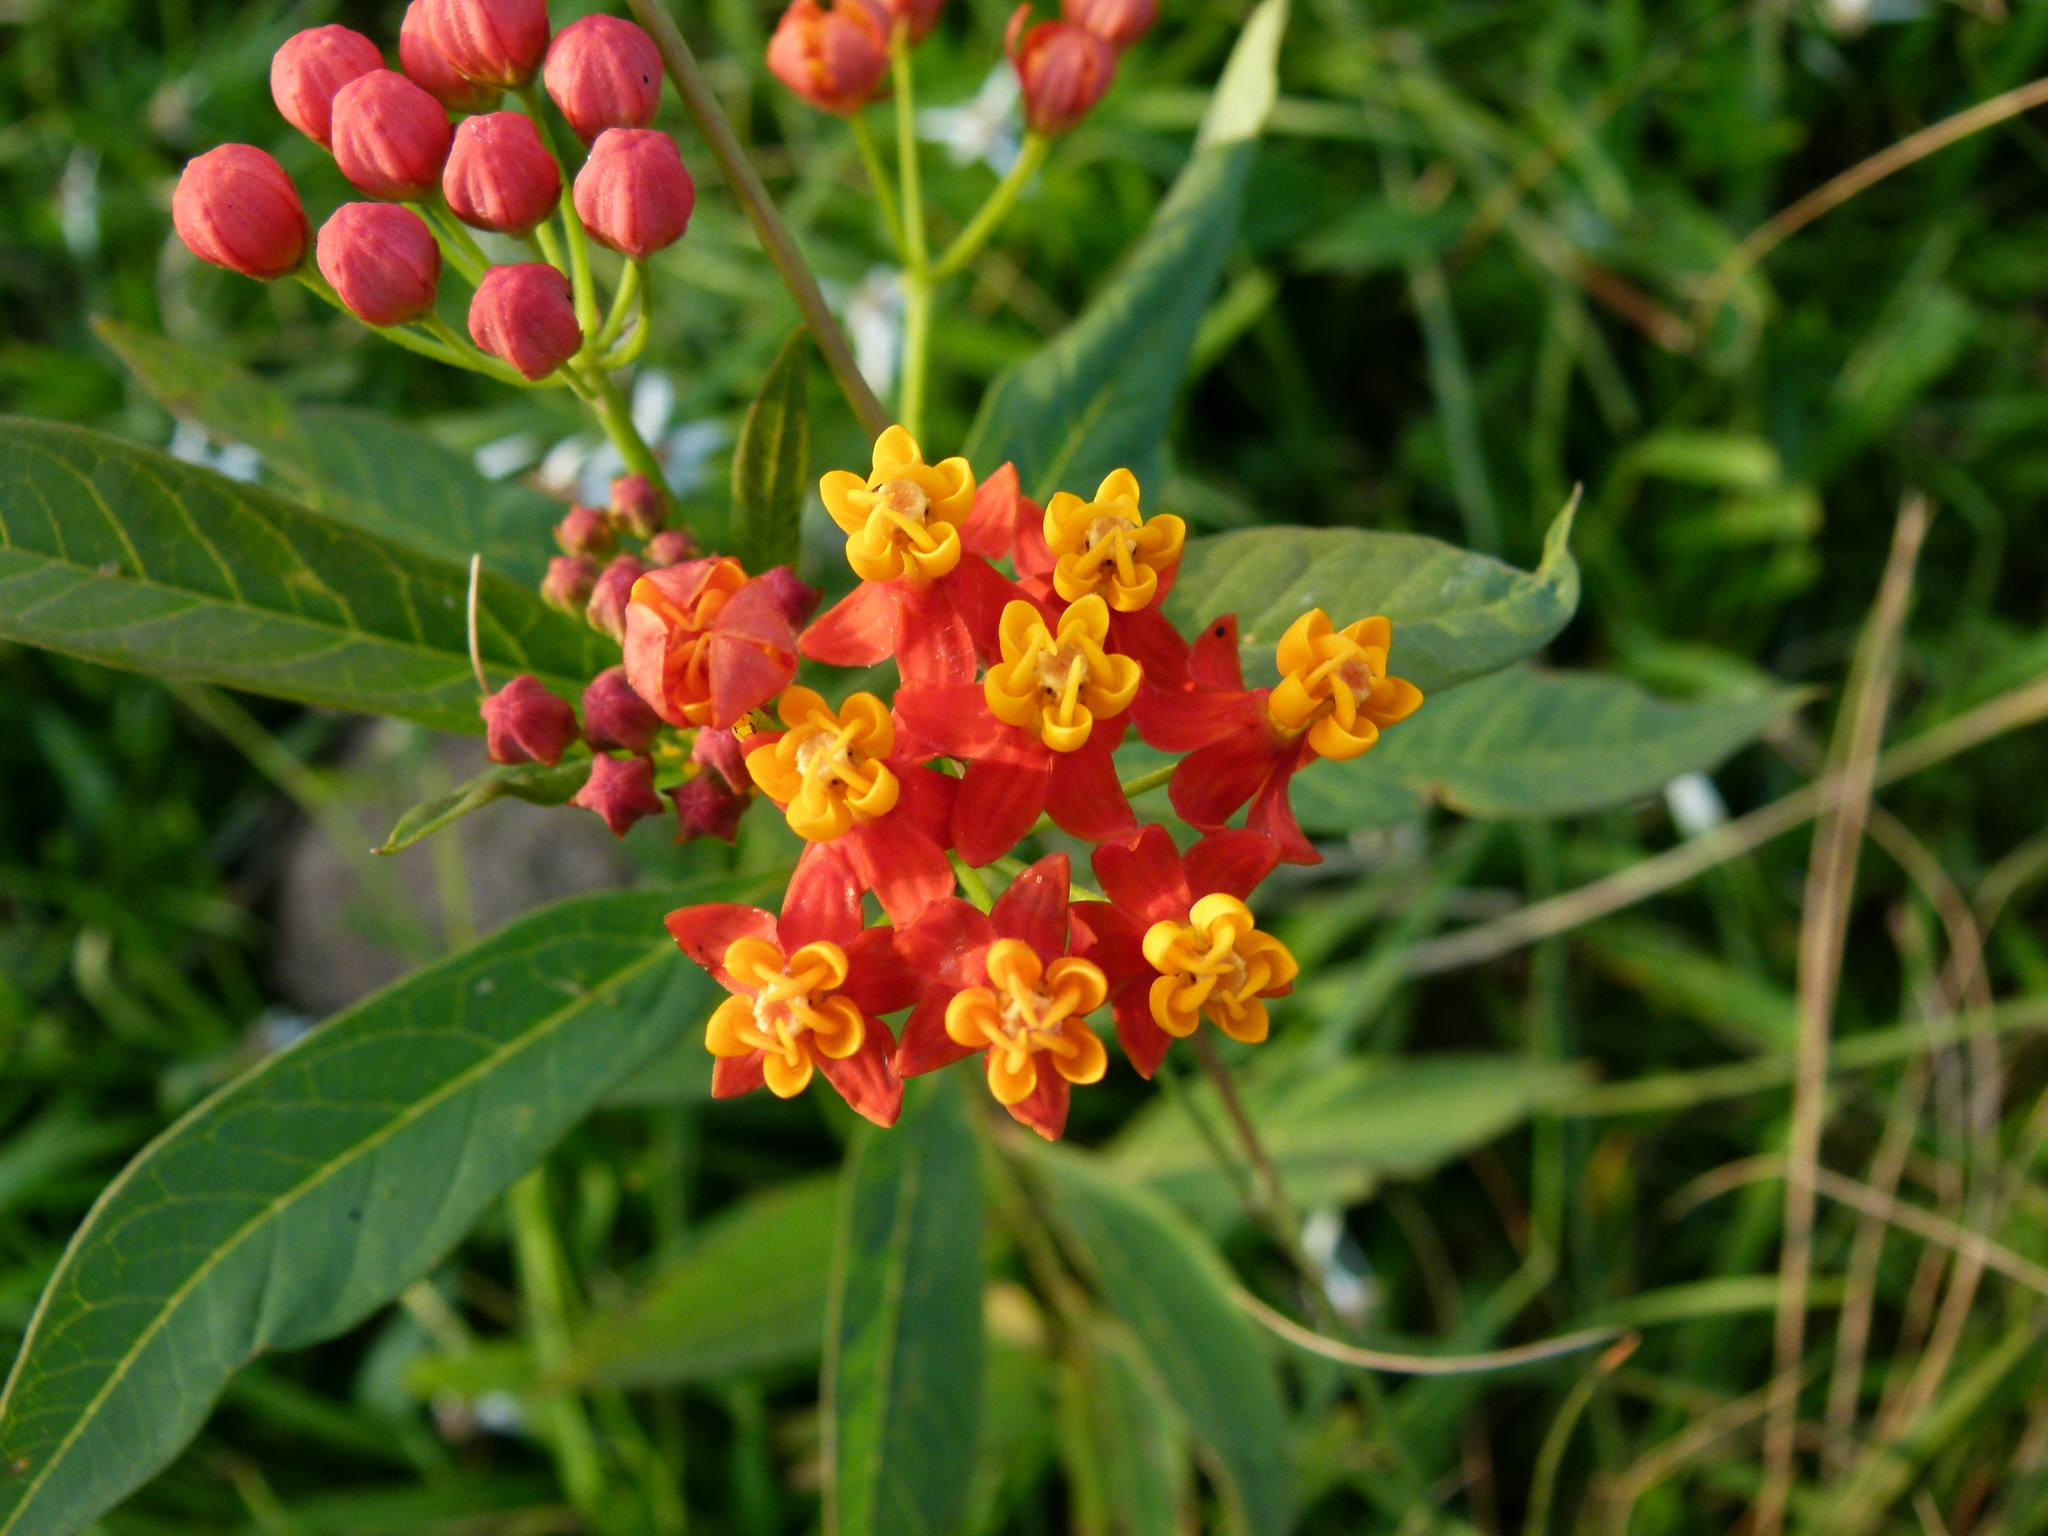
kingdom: Plantae
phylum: Tracheophyta
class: Magnoliopsida
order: Gentianales
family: Apocynaceae
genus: Asclepias
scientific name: Asclepias curassavica
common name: Bloodflower
